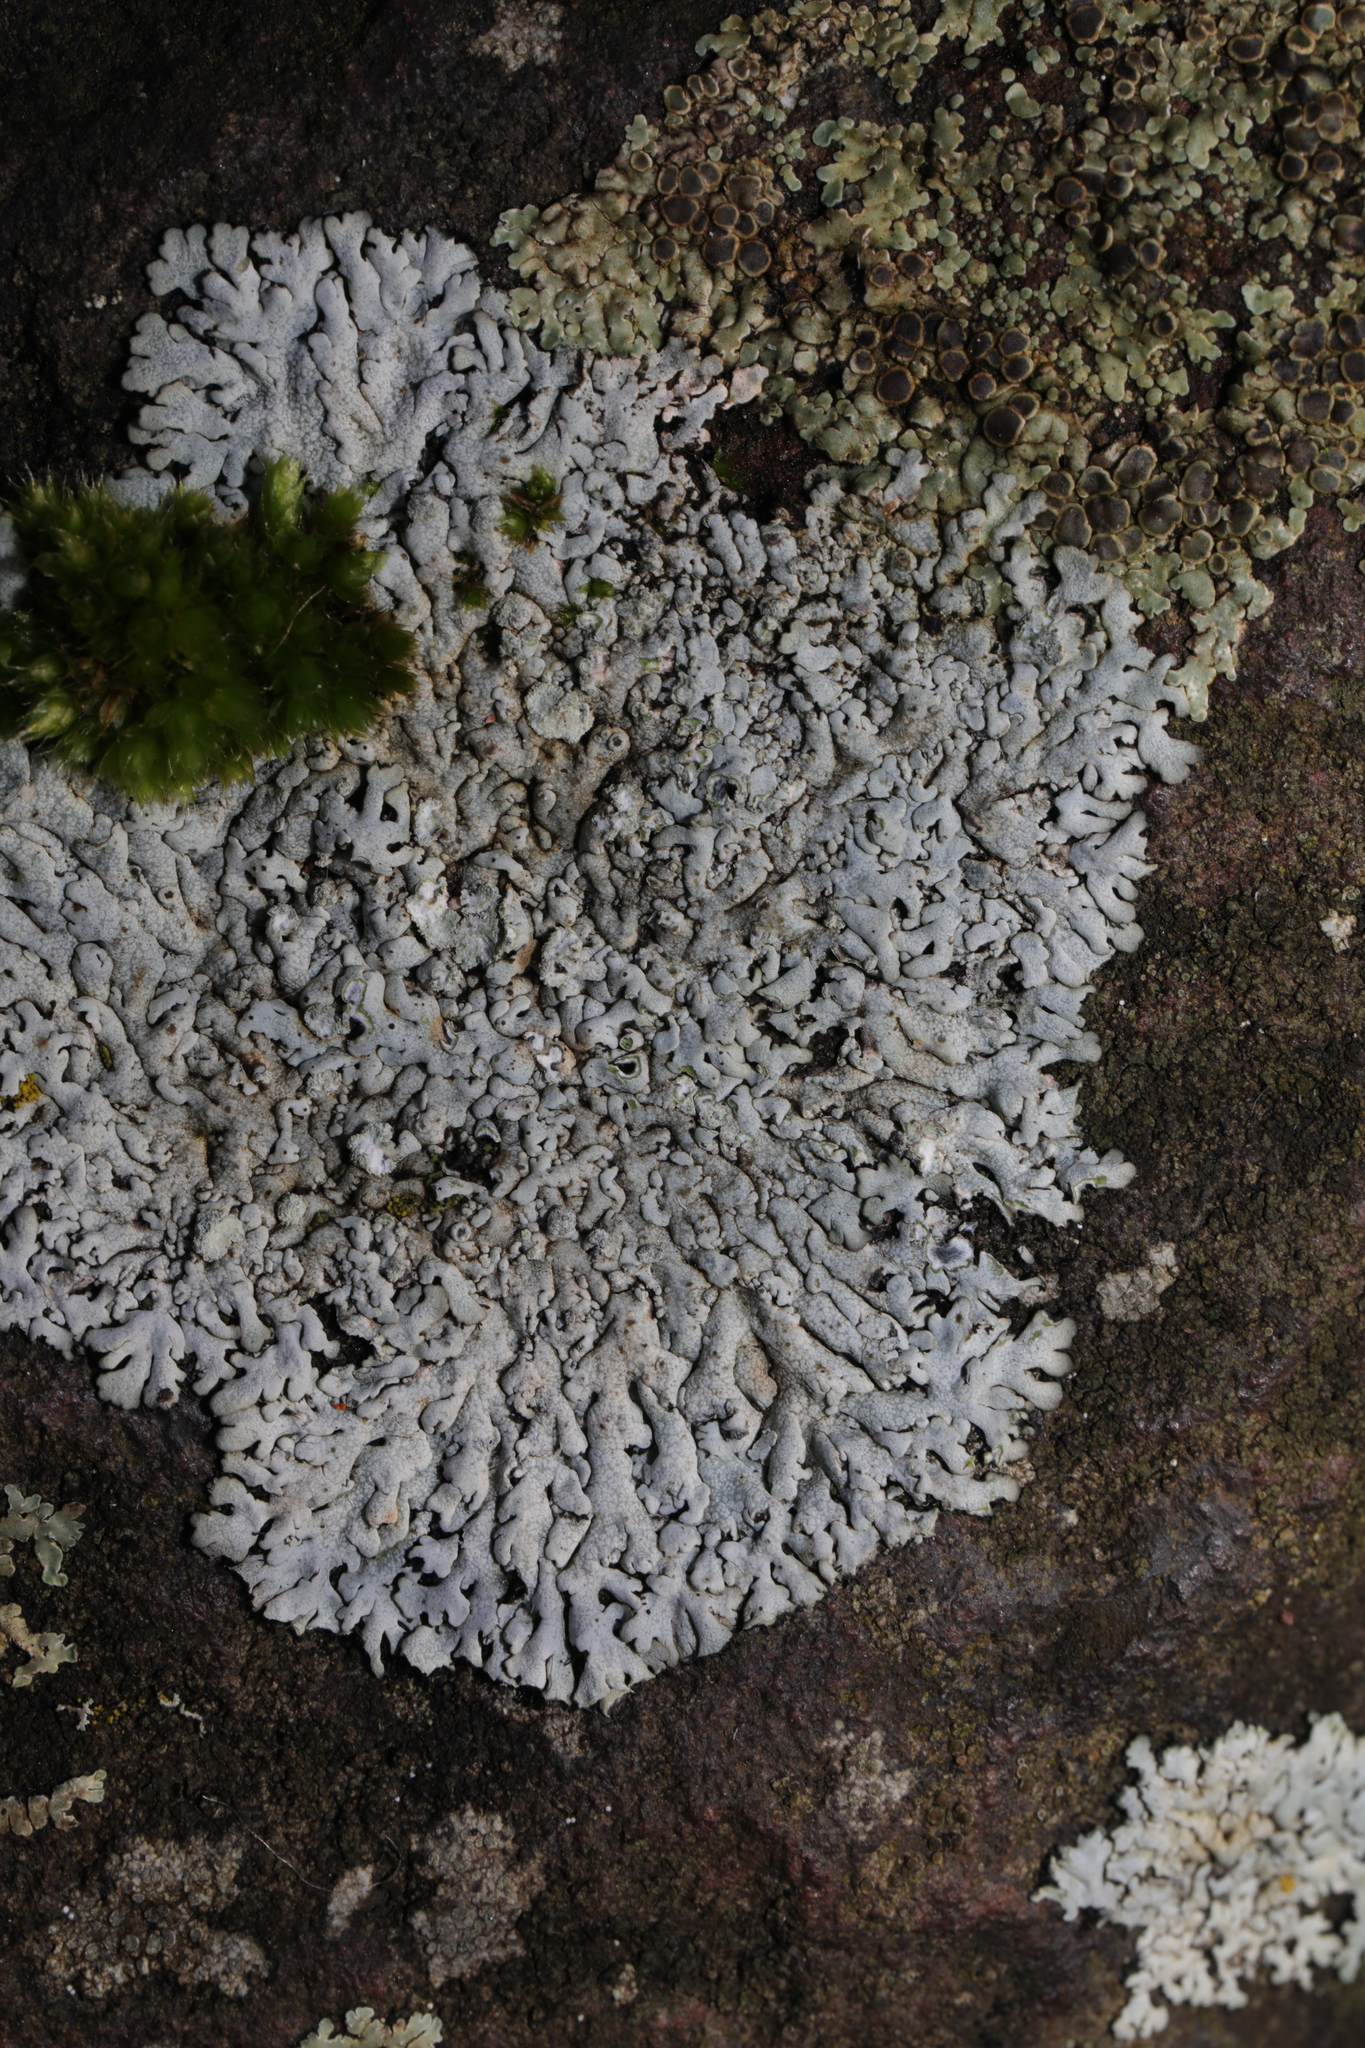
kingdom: Fungi
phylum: Ascomycota
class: Lecanoromycetes
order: Caliciales
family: Physciaceae
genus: Physcia
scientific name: Physcia caesia
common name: Blue-gray rosette lichen
